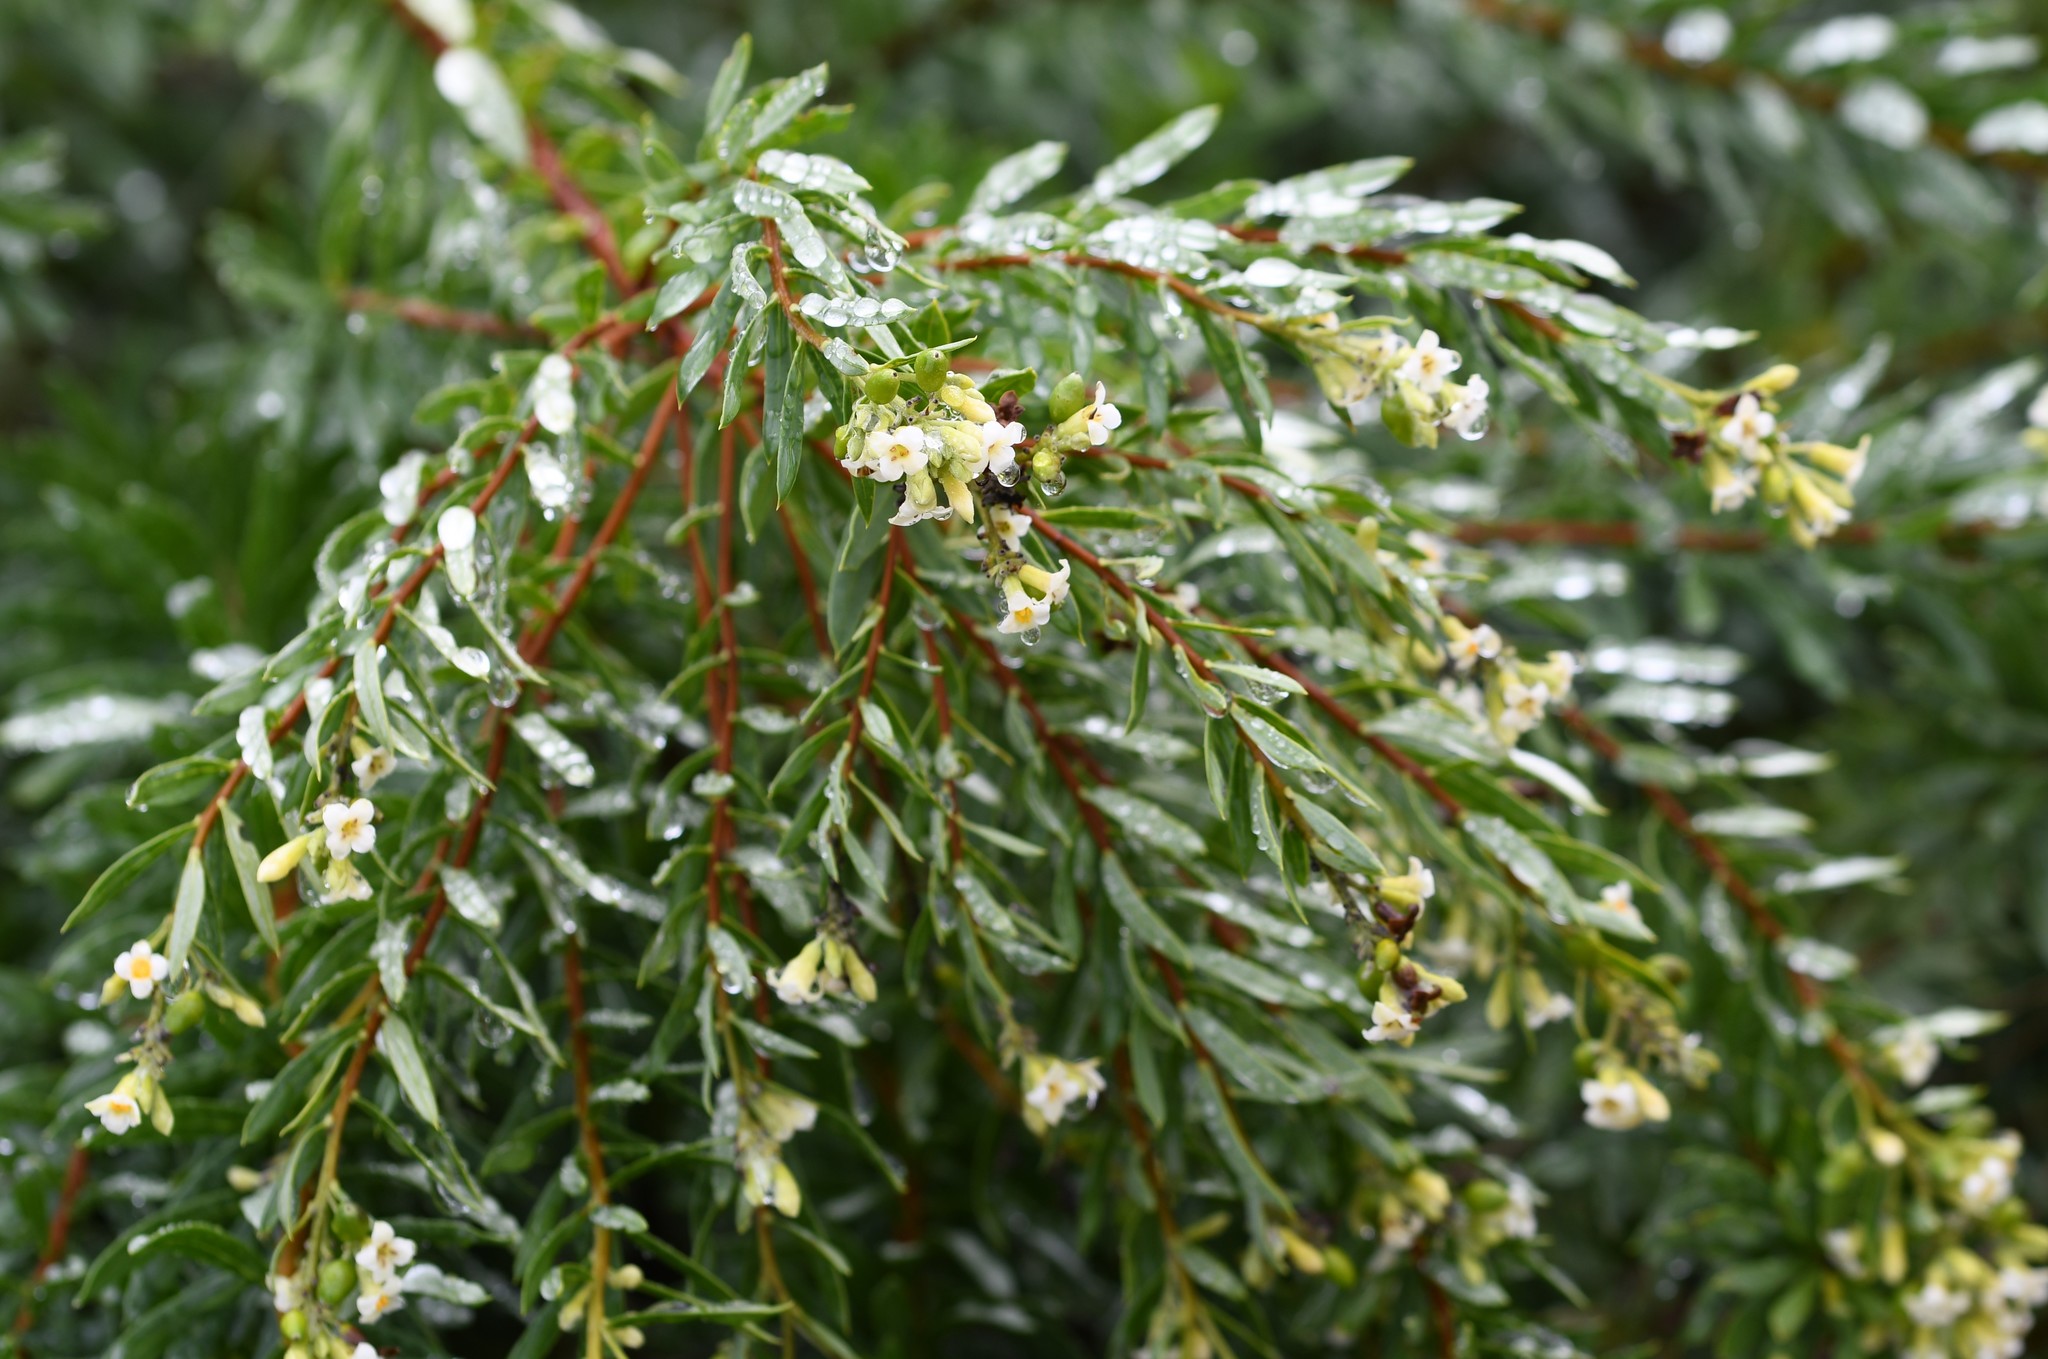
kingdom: Plantae
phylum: Tracheophyta
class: Magnoliopsida
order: Malvales
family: Thymelaeaceae
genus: Daphne
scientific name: Daphne gnidium
